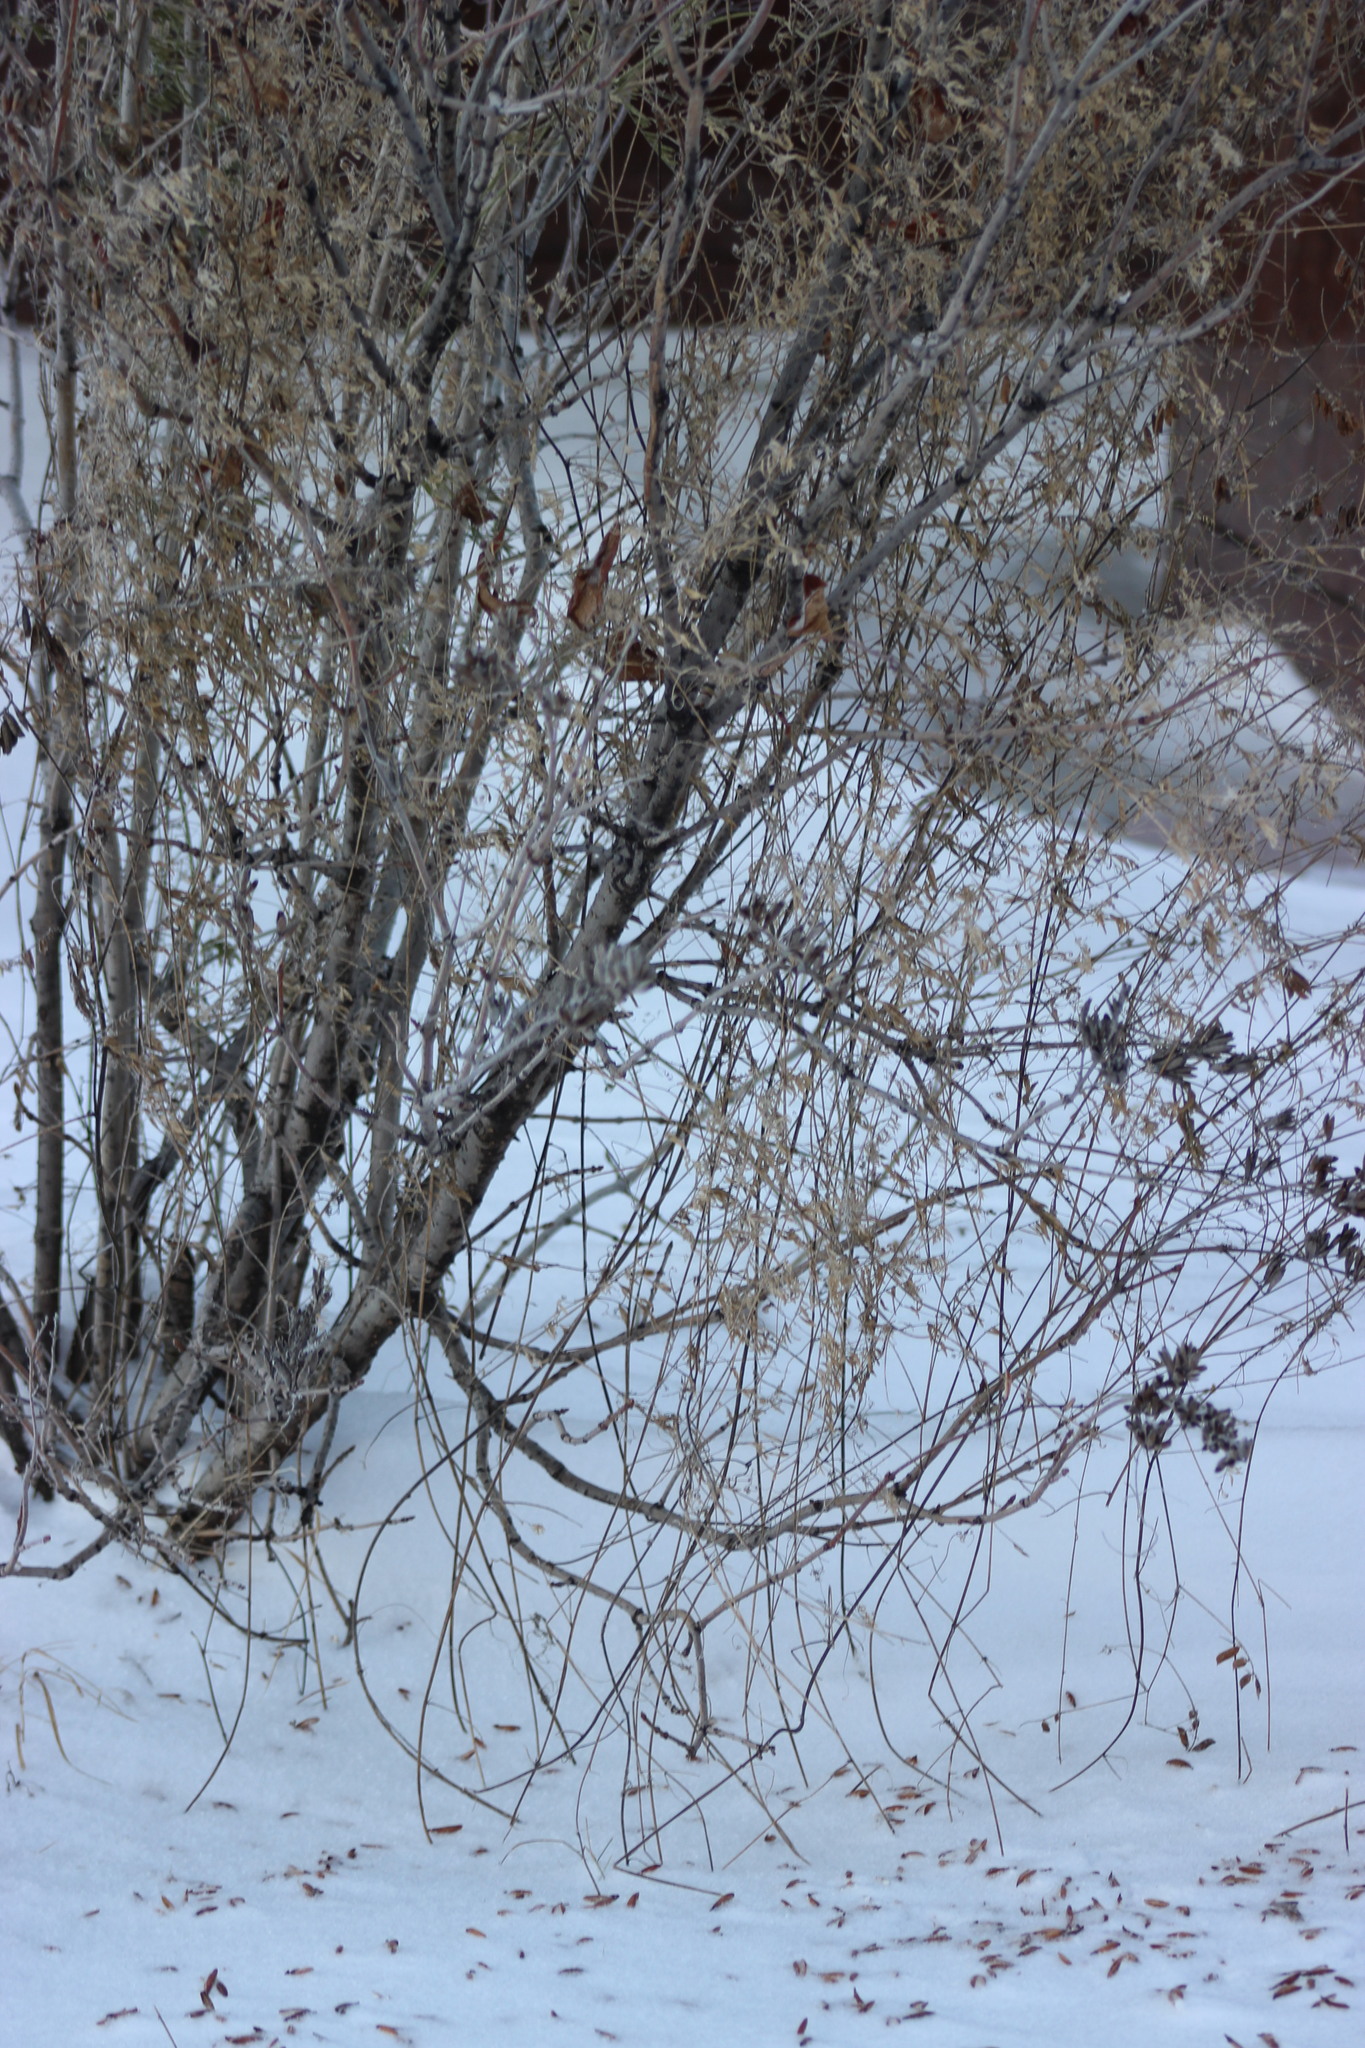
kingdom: Plantae
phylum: Tracheophyta
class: Magnoliopsida
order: Fabales
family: Fabaceae
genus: Vicia
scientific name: Vicia cracca
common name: Bird vetch
